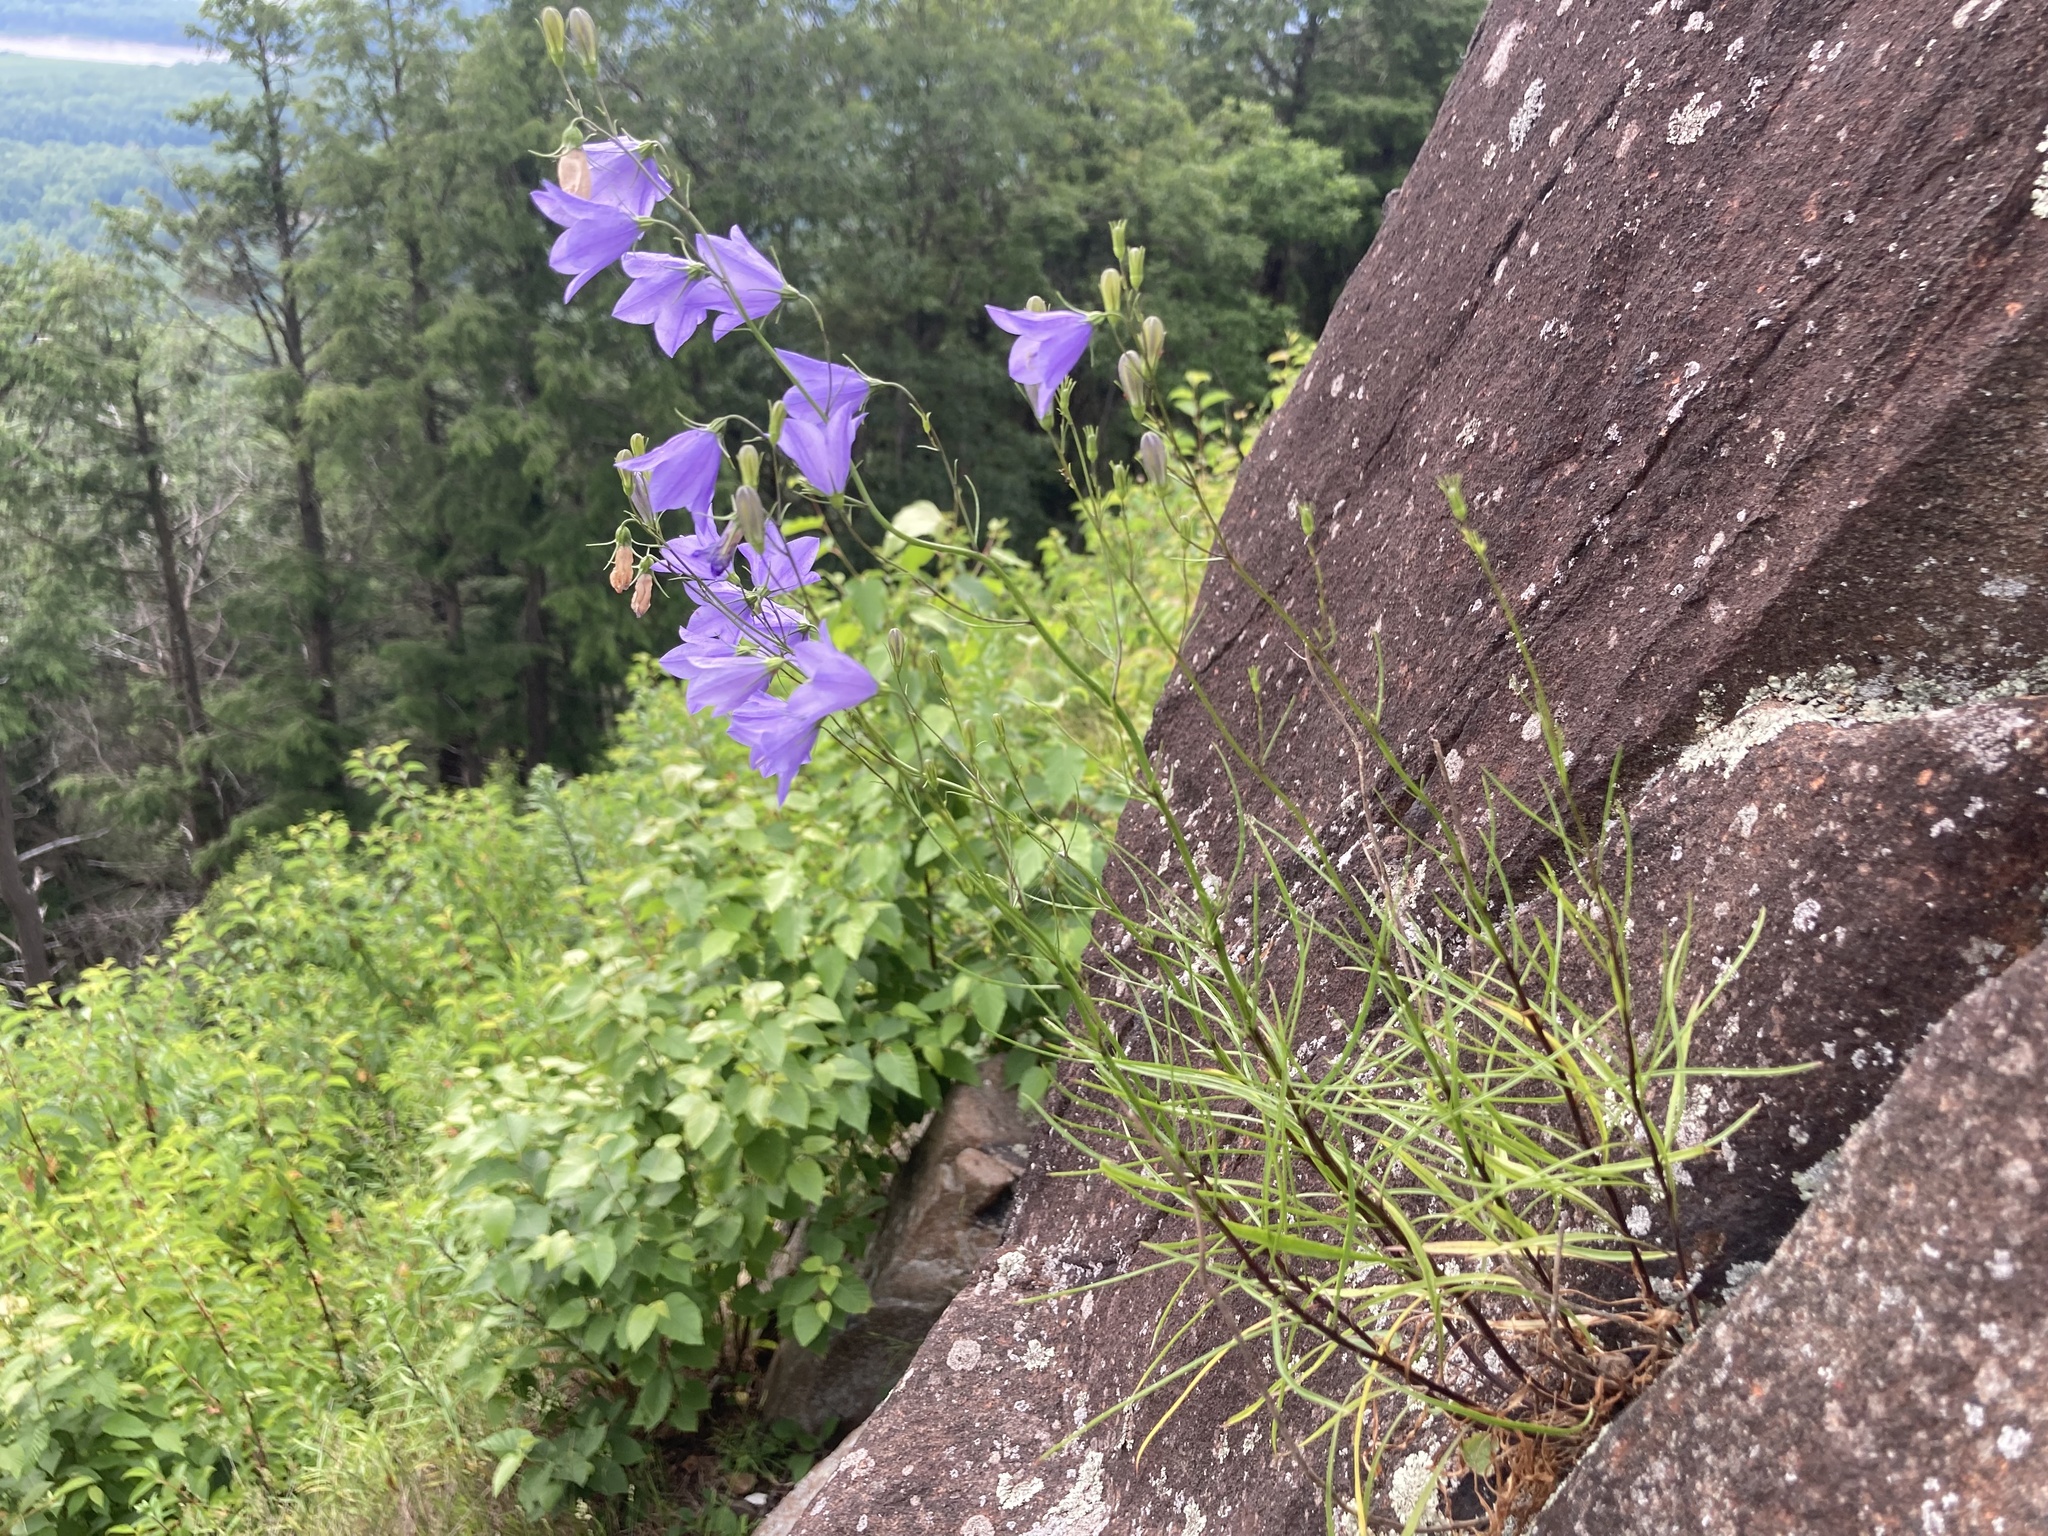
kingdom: Plantae
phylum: Tracheophyta
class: Magnoliopsida
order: Asterales
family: Campanulaceae
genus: Campanula
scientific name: Campanula intercedens
